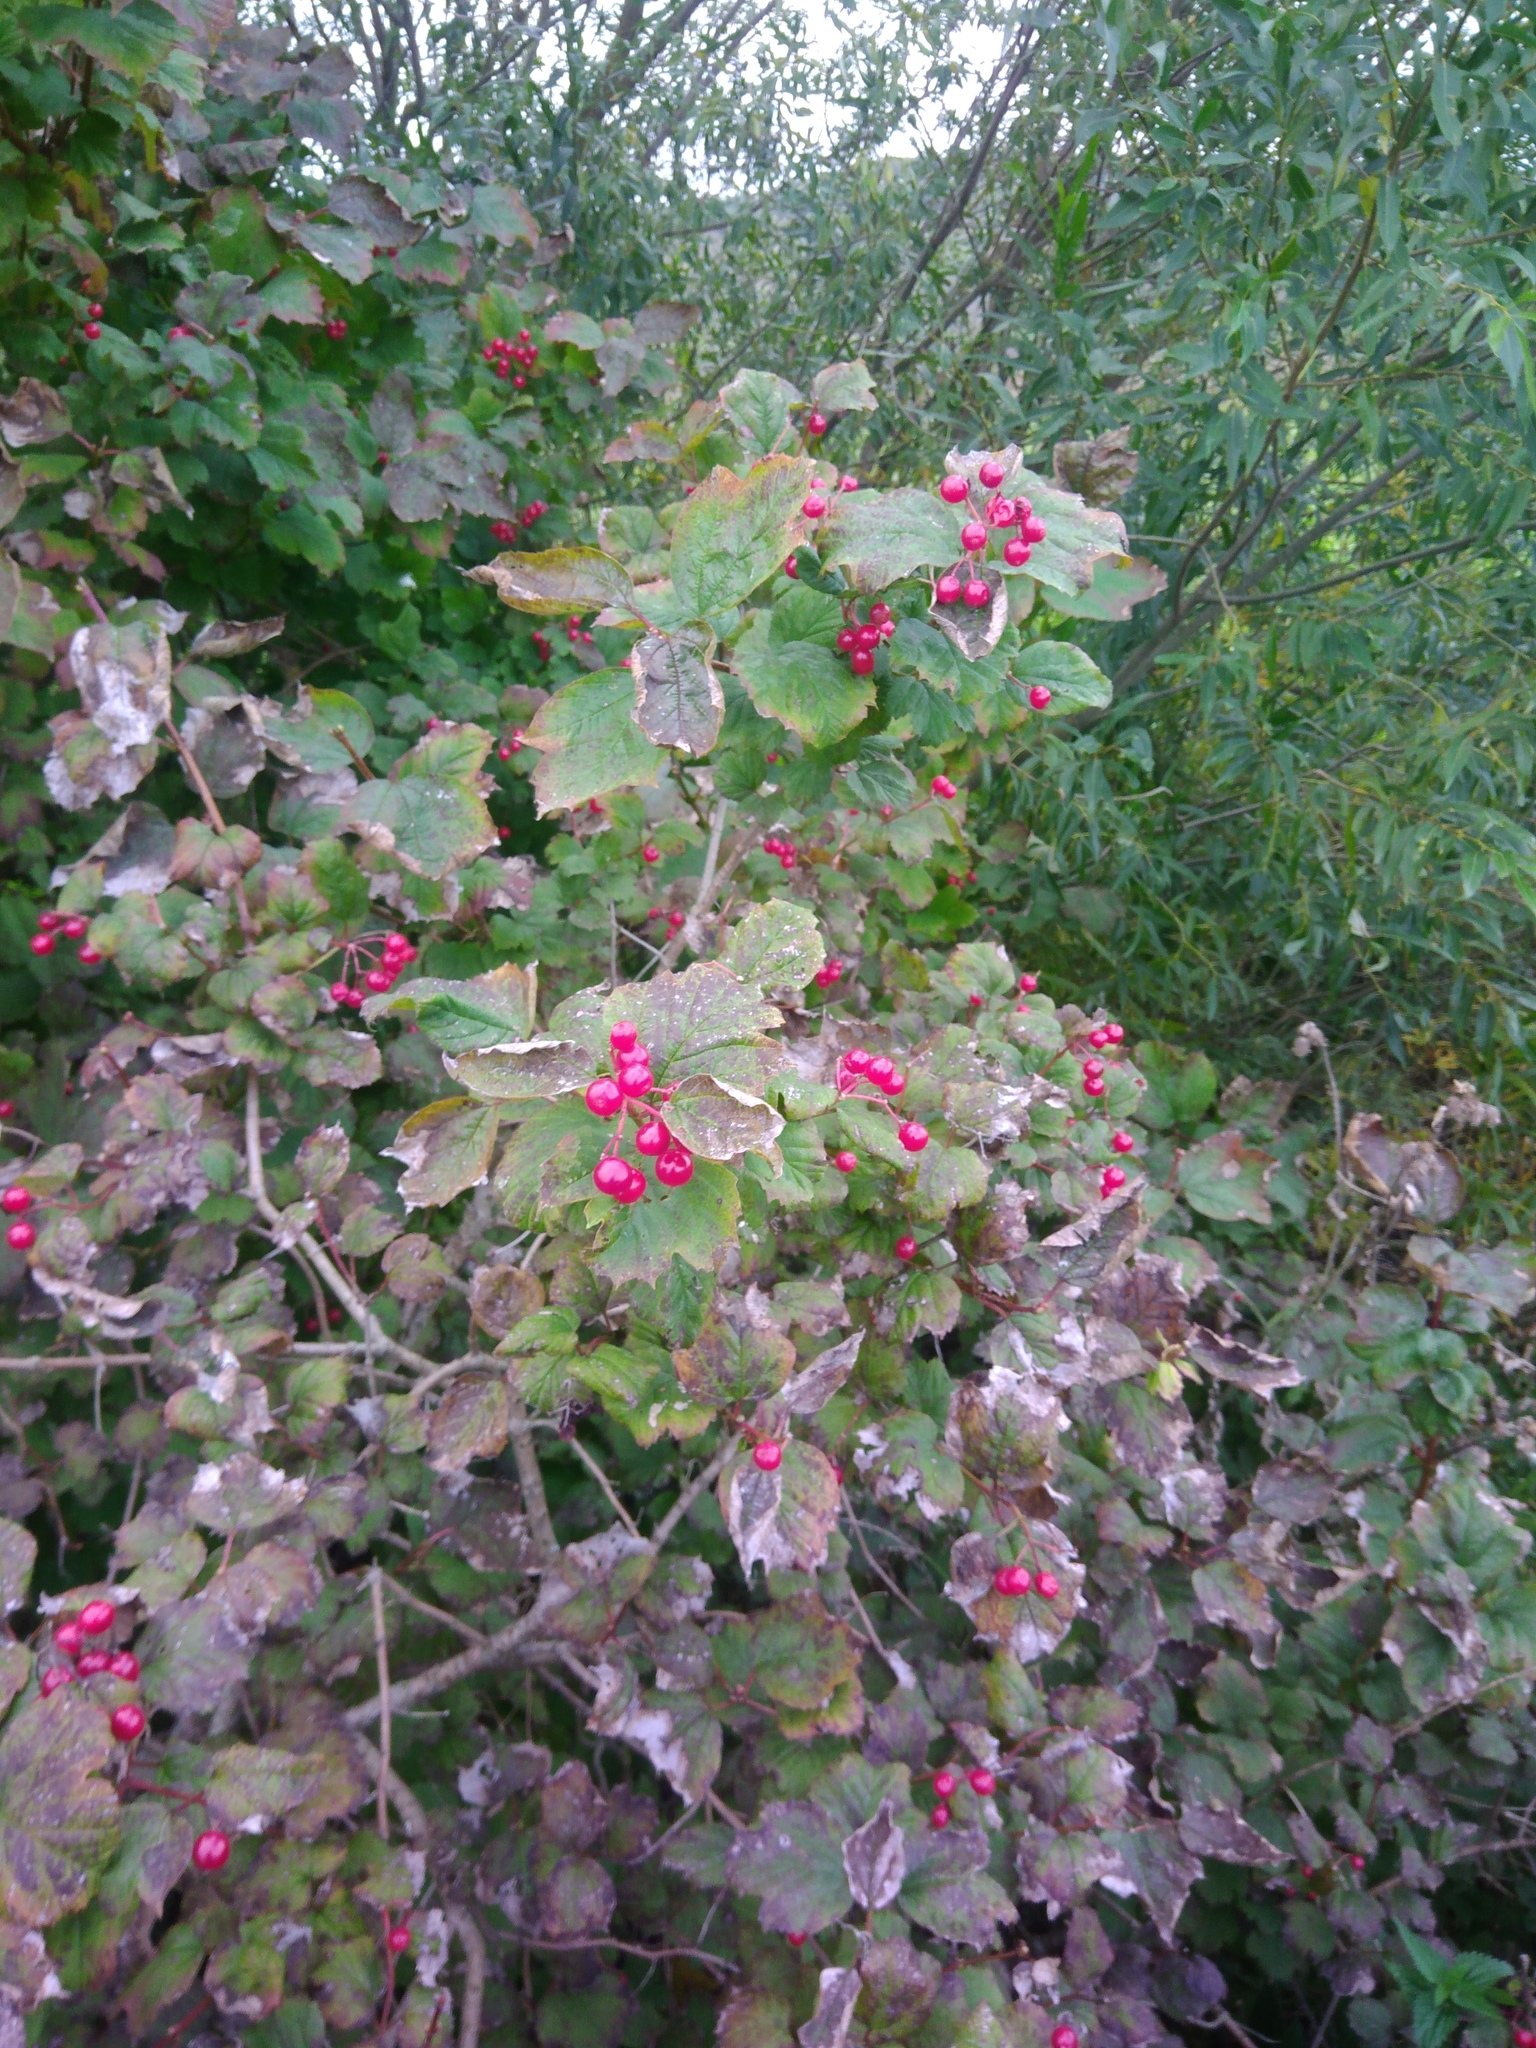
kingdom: Plantae
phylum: Tracheophyta
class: Magnoliopsida
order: Dipsacales
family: Viburnaceae
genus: Viburnum
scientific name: Viburnum opulus
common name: Guelder-rose
